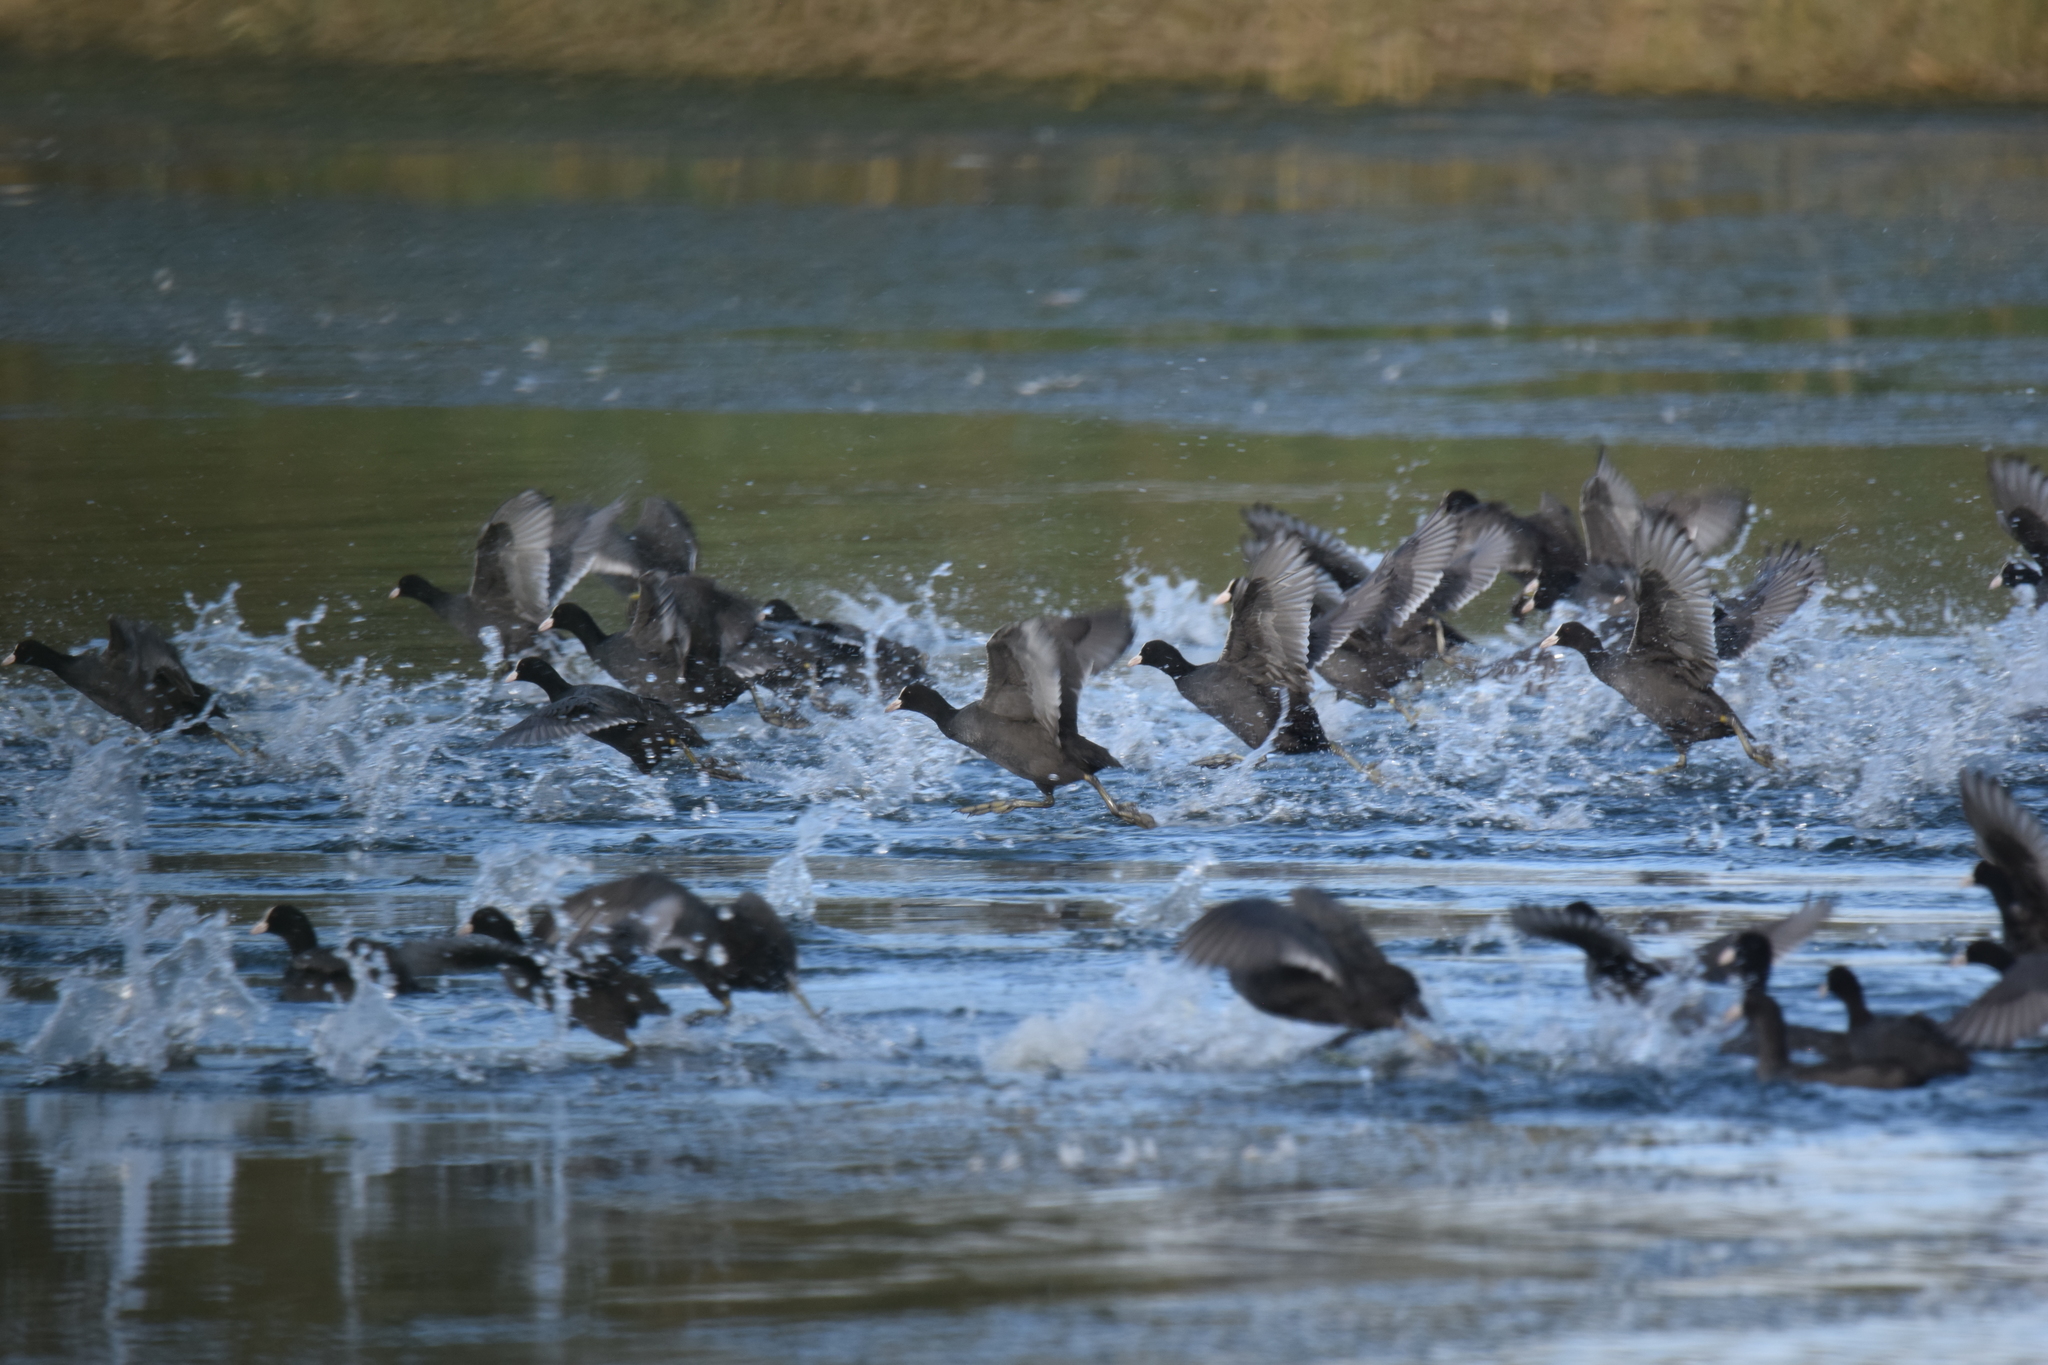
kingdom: Animalia
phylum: Chordata
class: Aves
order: Gruiformes
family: Rallidae
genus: Fulica
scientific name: Fulica atra
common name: Eurasian coot
